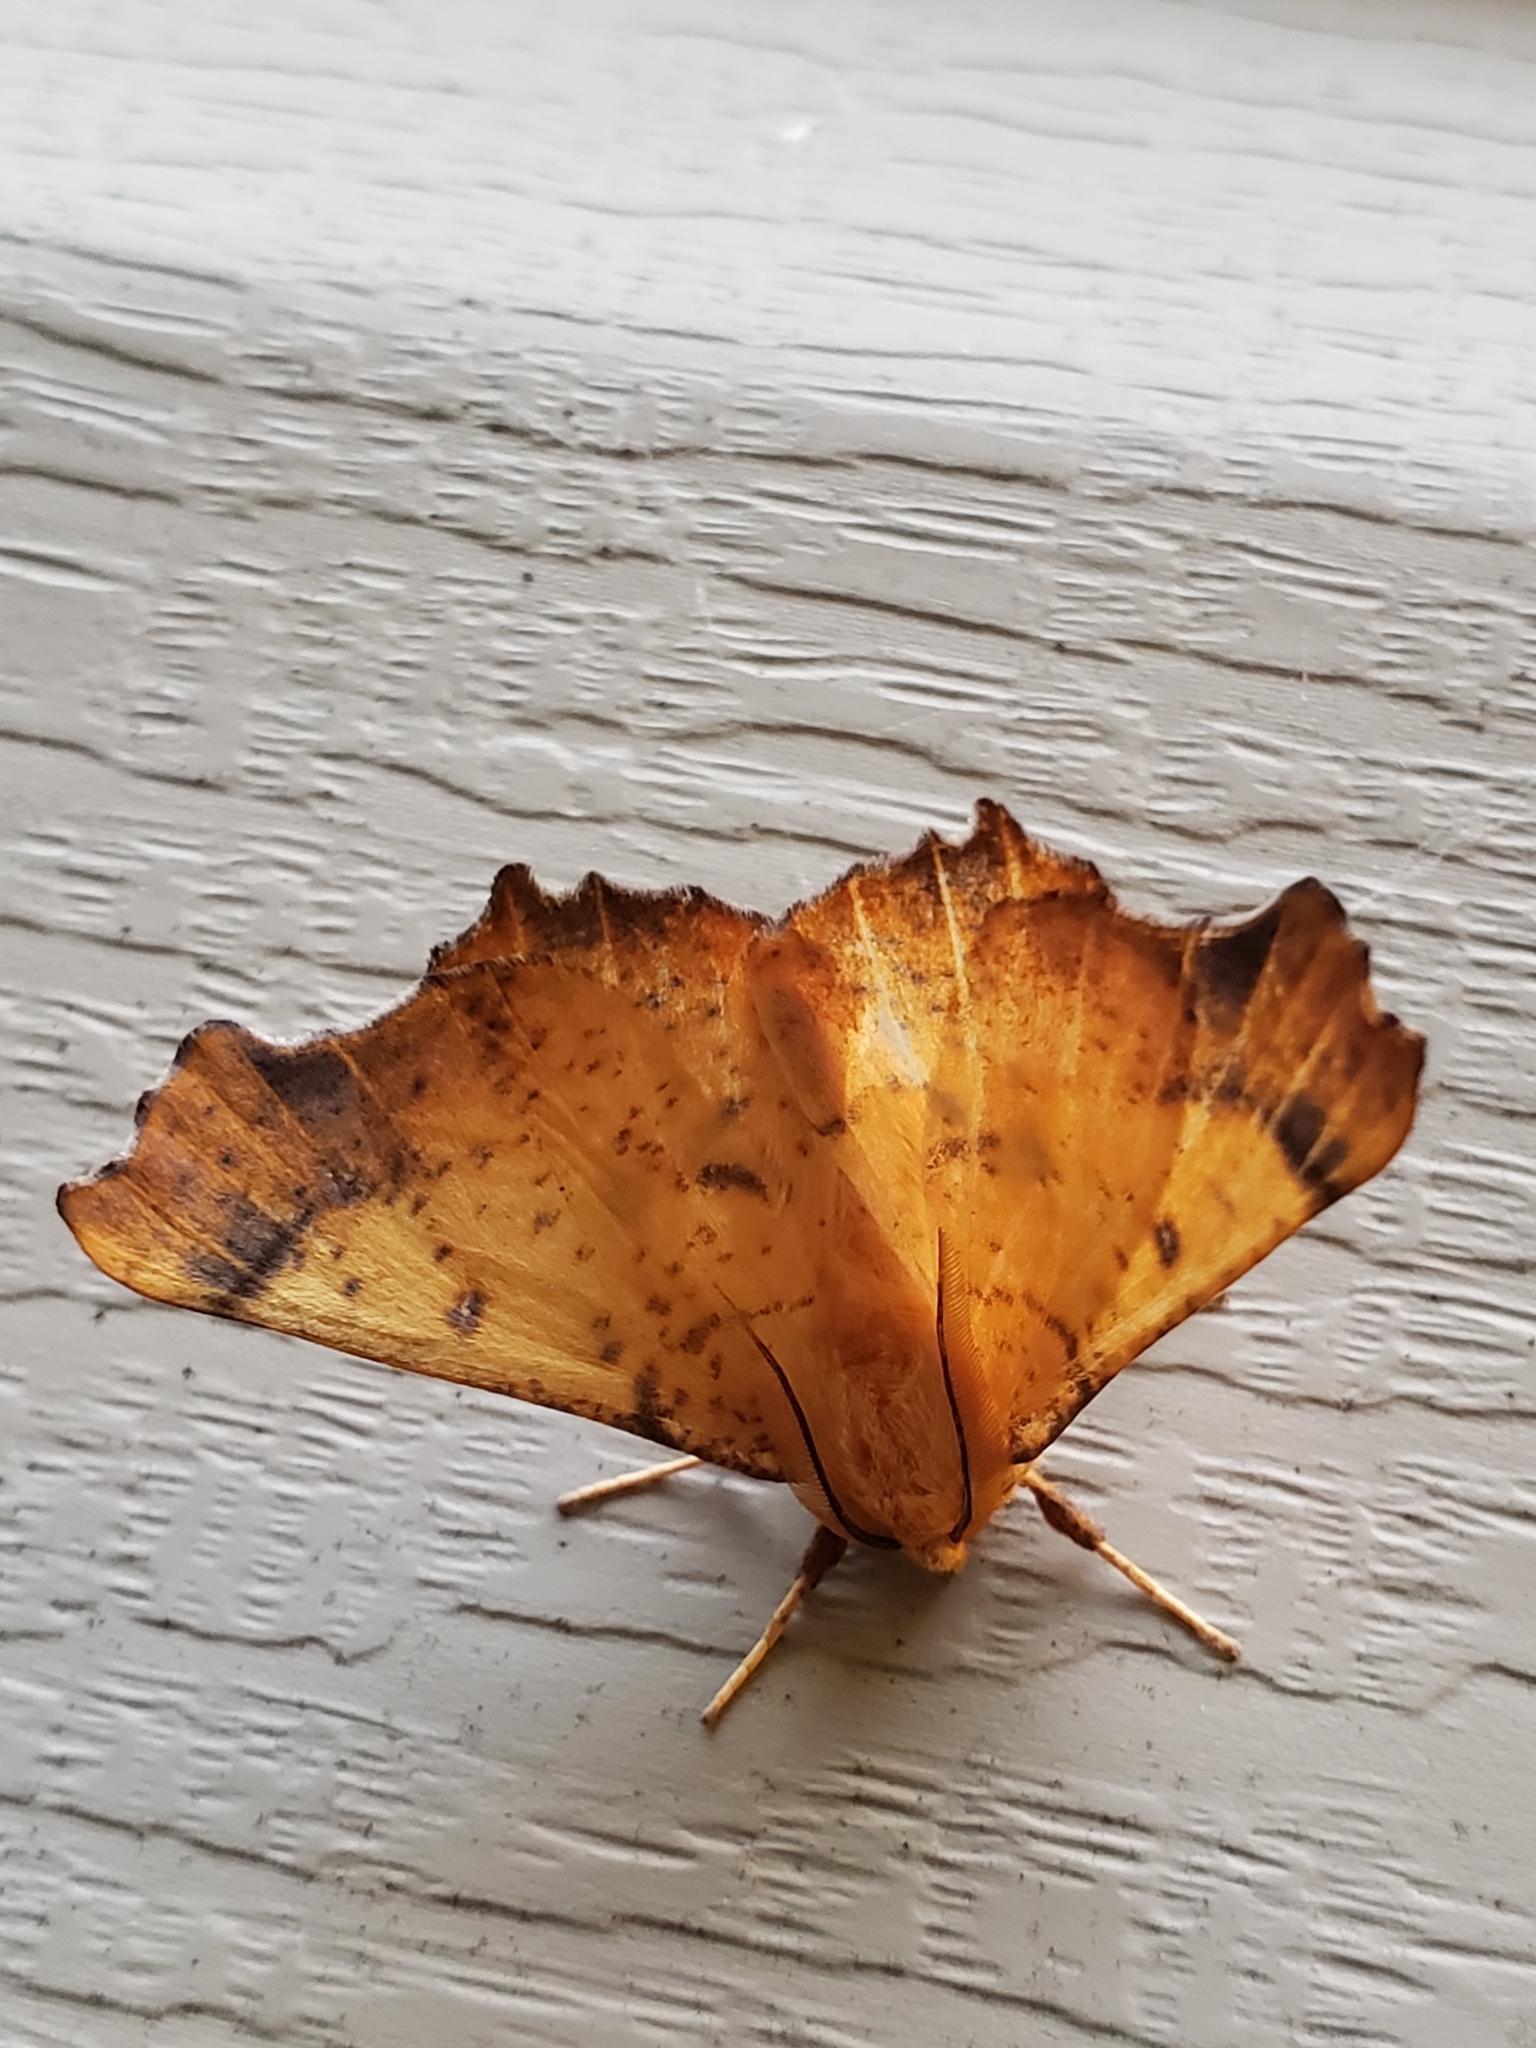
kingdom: Animalia
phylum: Arthropoda
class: Insecta
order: Lepidoptera
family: Geometridae
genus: Ennomos
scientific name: Ennomos magnaria
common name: Maple spanworm
